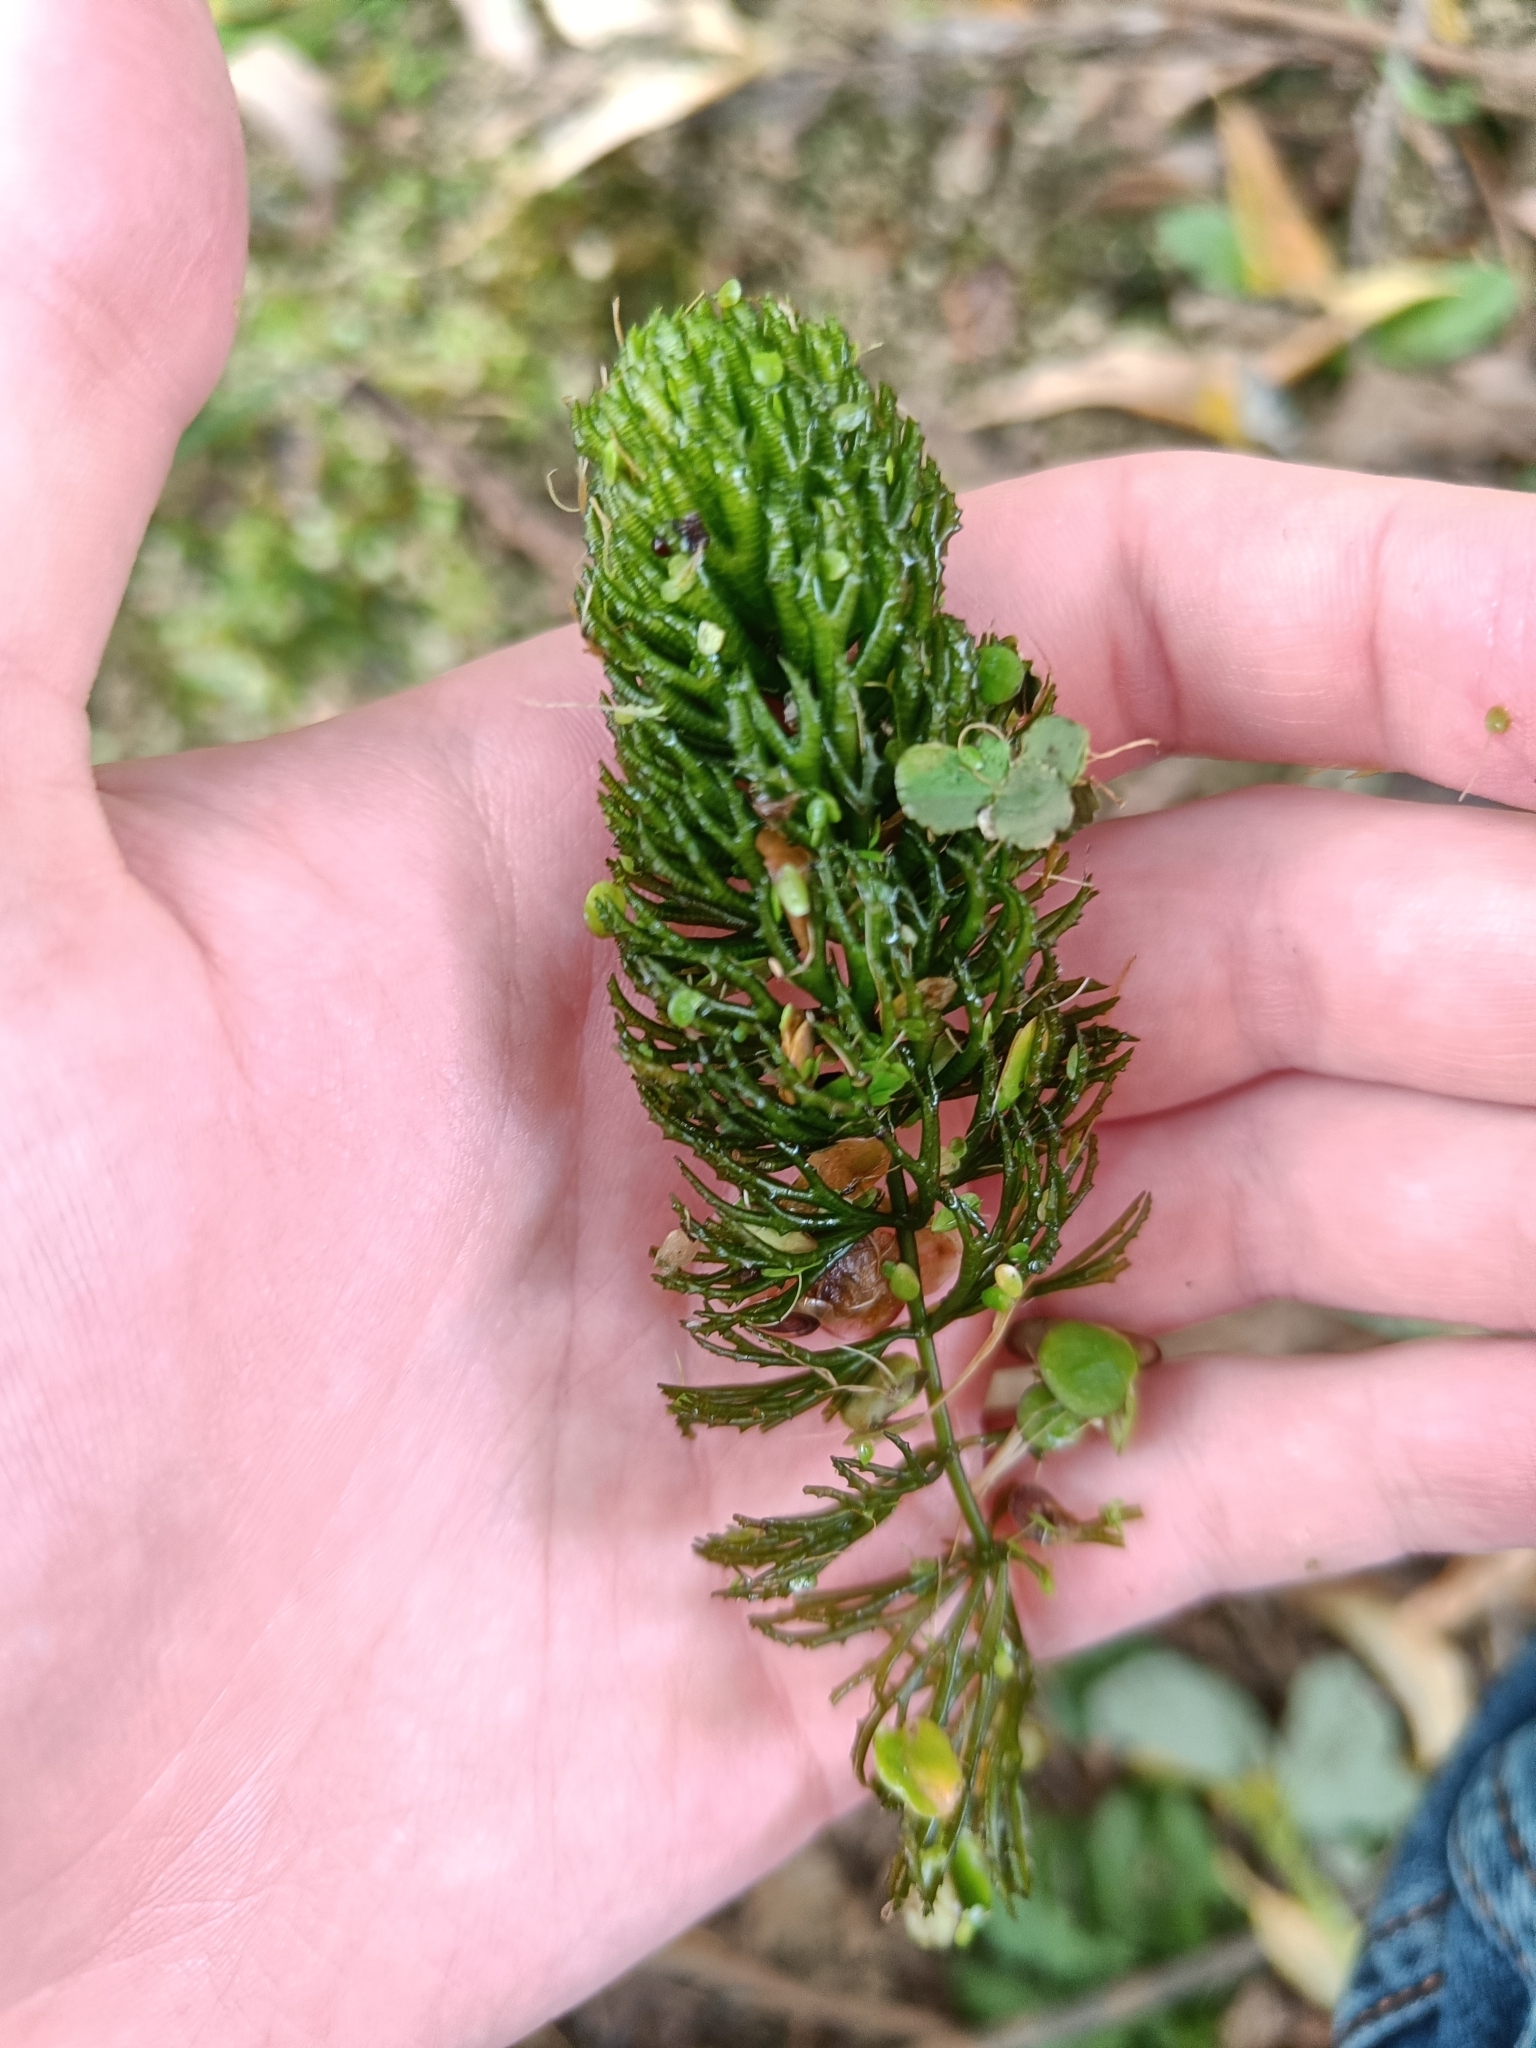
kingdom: Plantae
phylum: Tracheophyta
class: Magnoliopsida
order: Ceratophyllales
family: Ceratophyllaceae
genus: Ceratophyllum
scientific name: Ceratophyllum demersum
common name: Rigid hornwort
